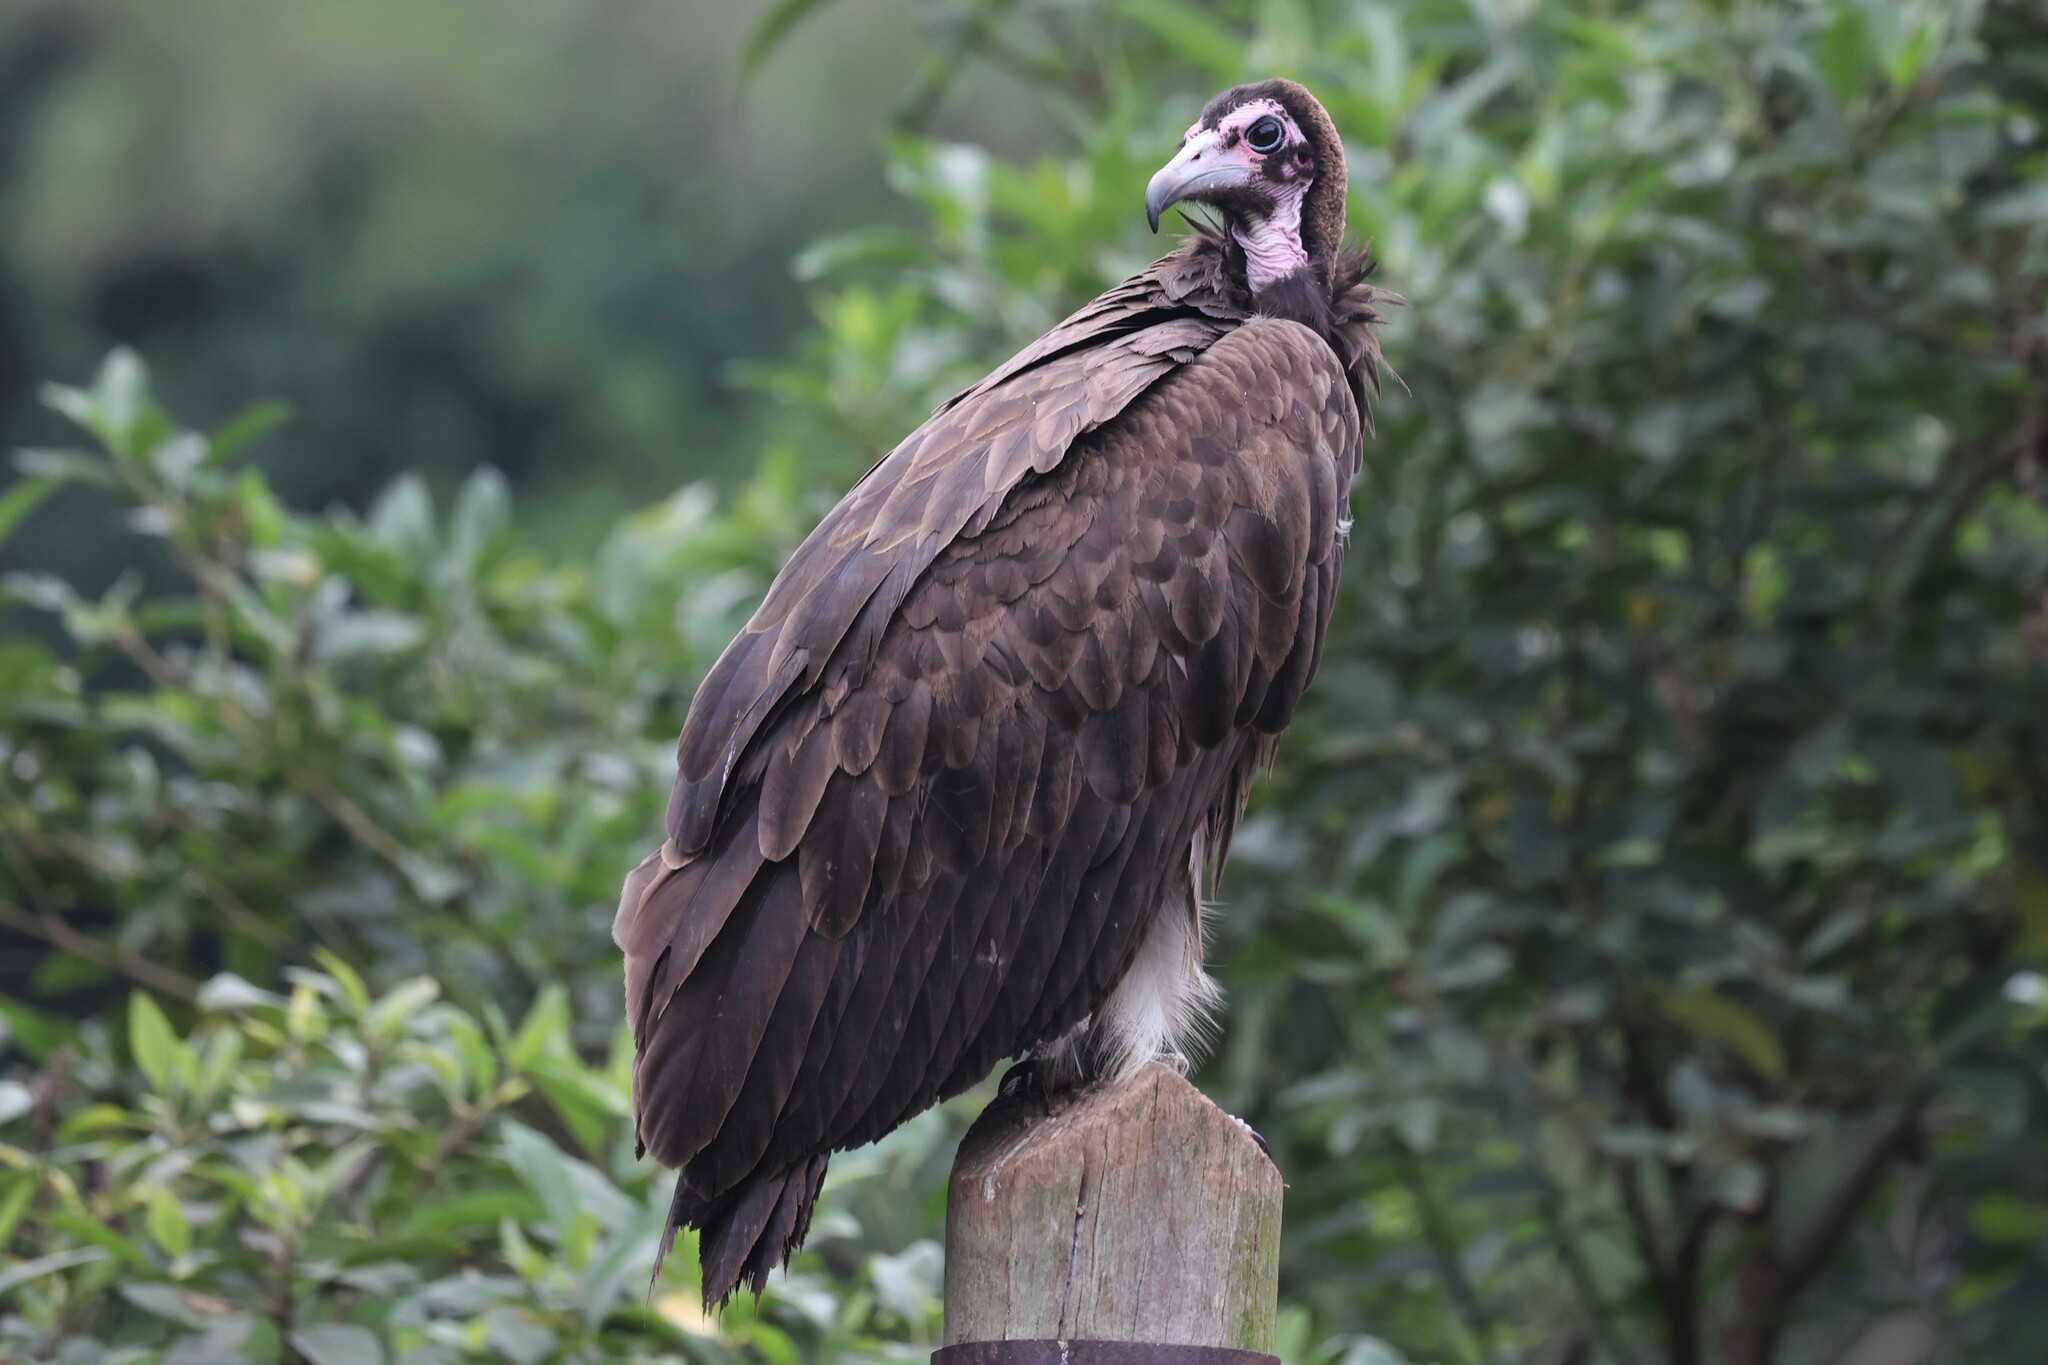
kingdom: Animalia
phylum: Chordata
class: Aves
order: Accipitriformes
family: Accipitridae
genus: Necrosyrtes
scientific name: Necrosyrtes monachus
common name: Hooded vulture
